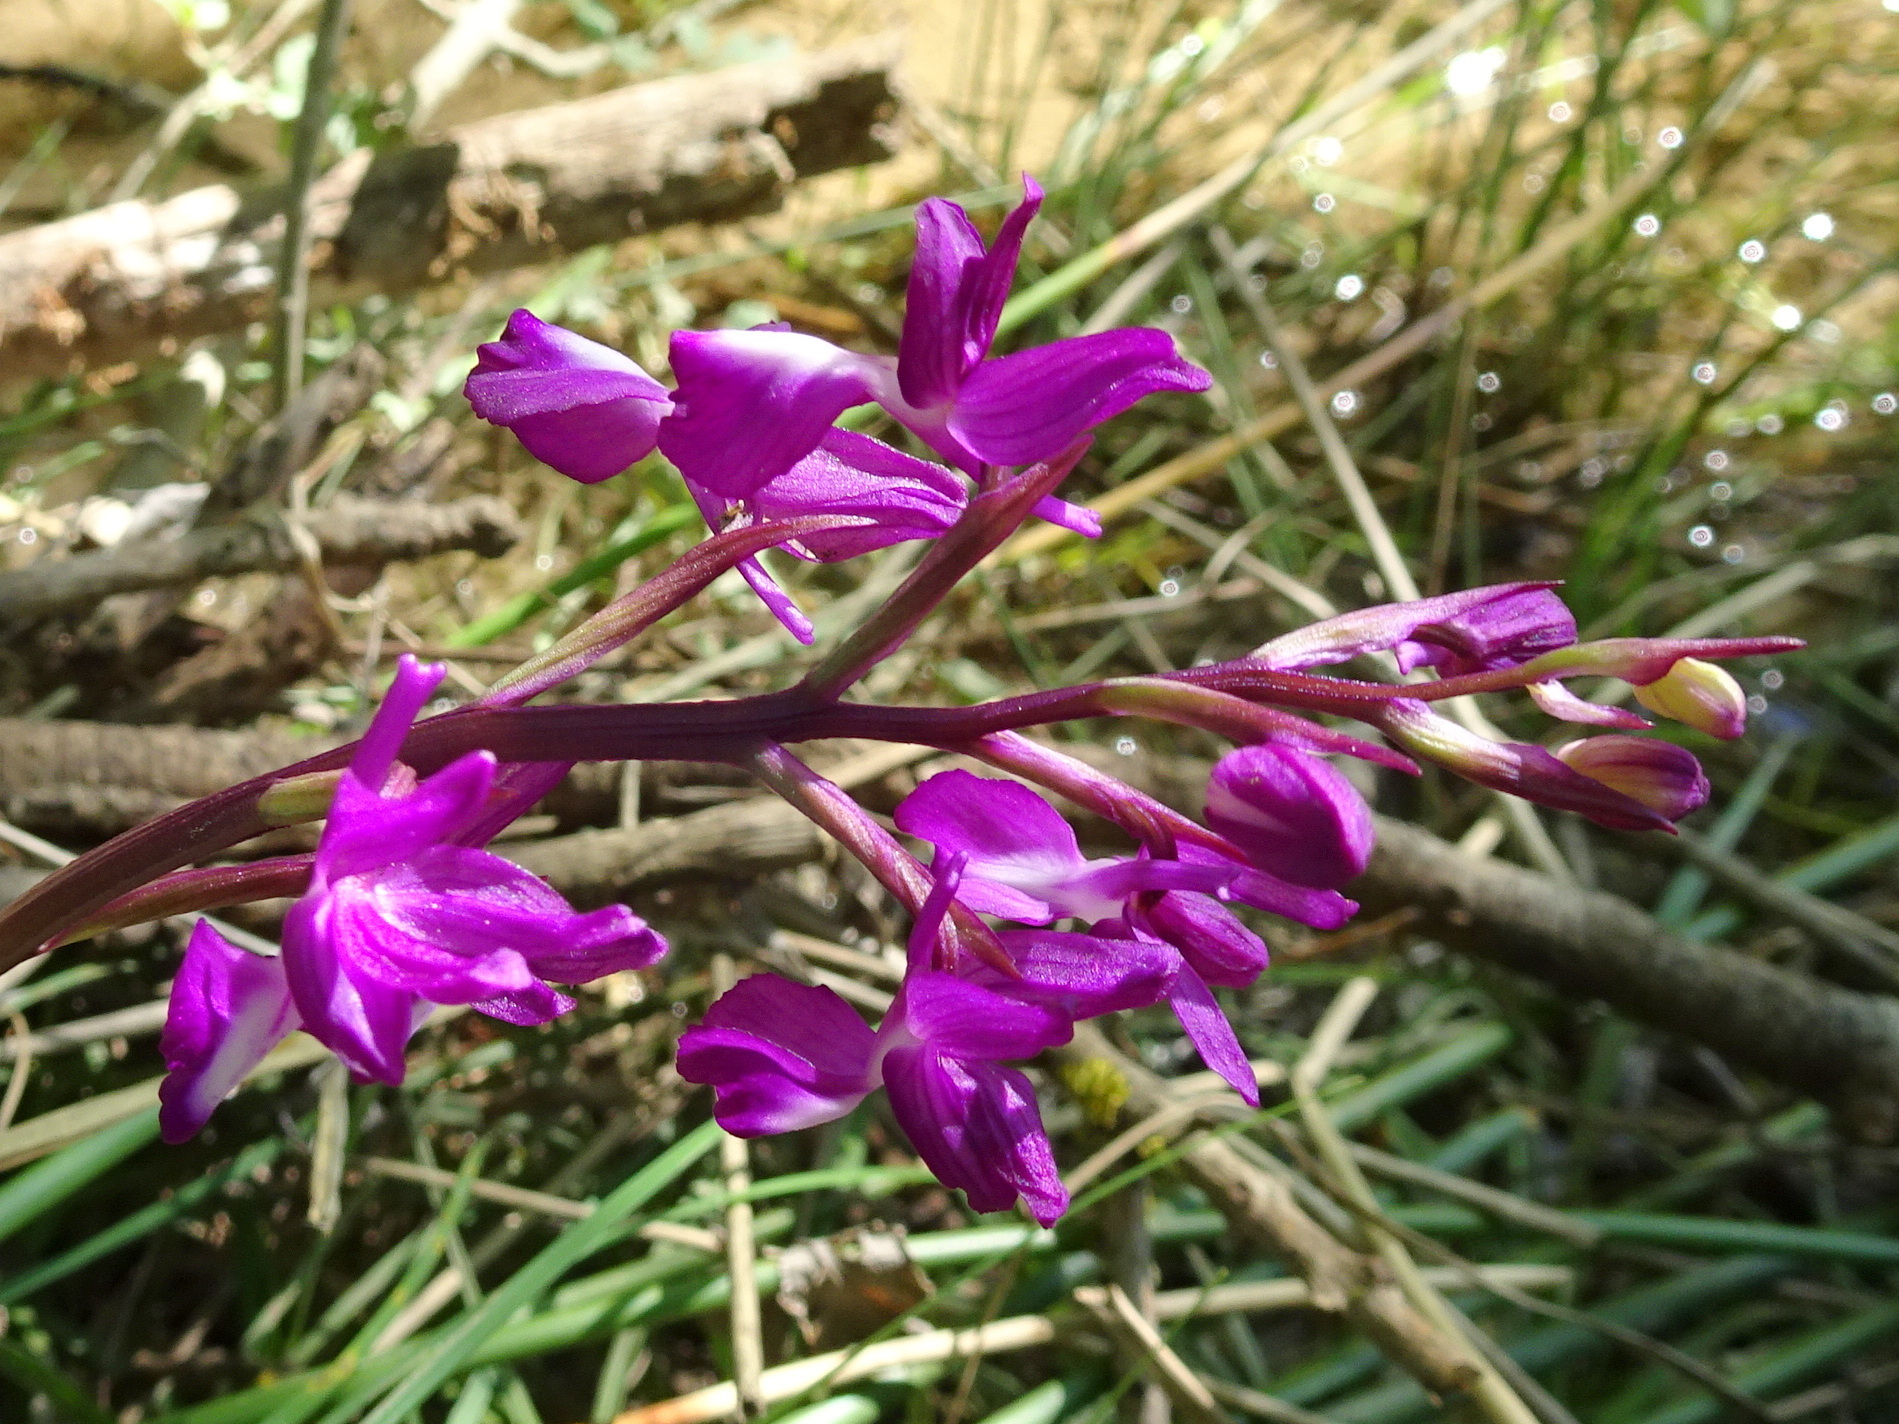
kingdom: Plantae
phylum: Tracheophyta
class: Liliopsida
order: Asparagales
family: Orchidaceae
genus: Anacamptis
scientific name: Anacamptis laxiflora
